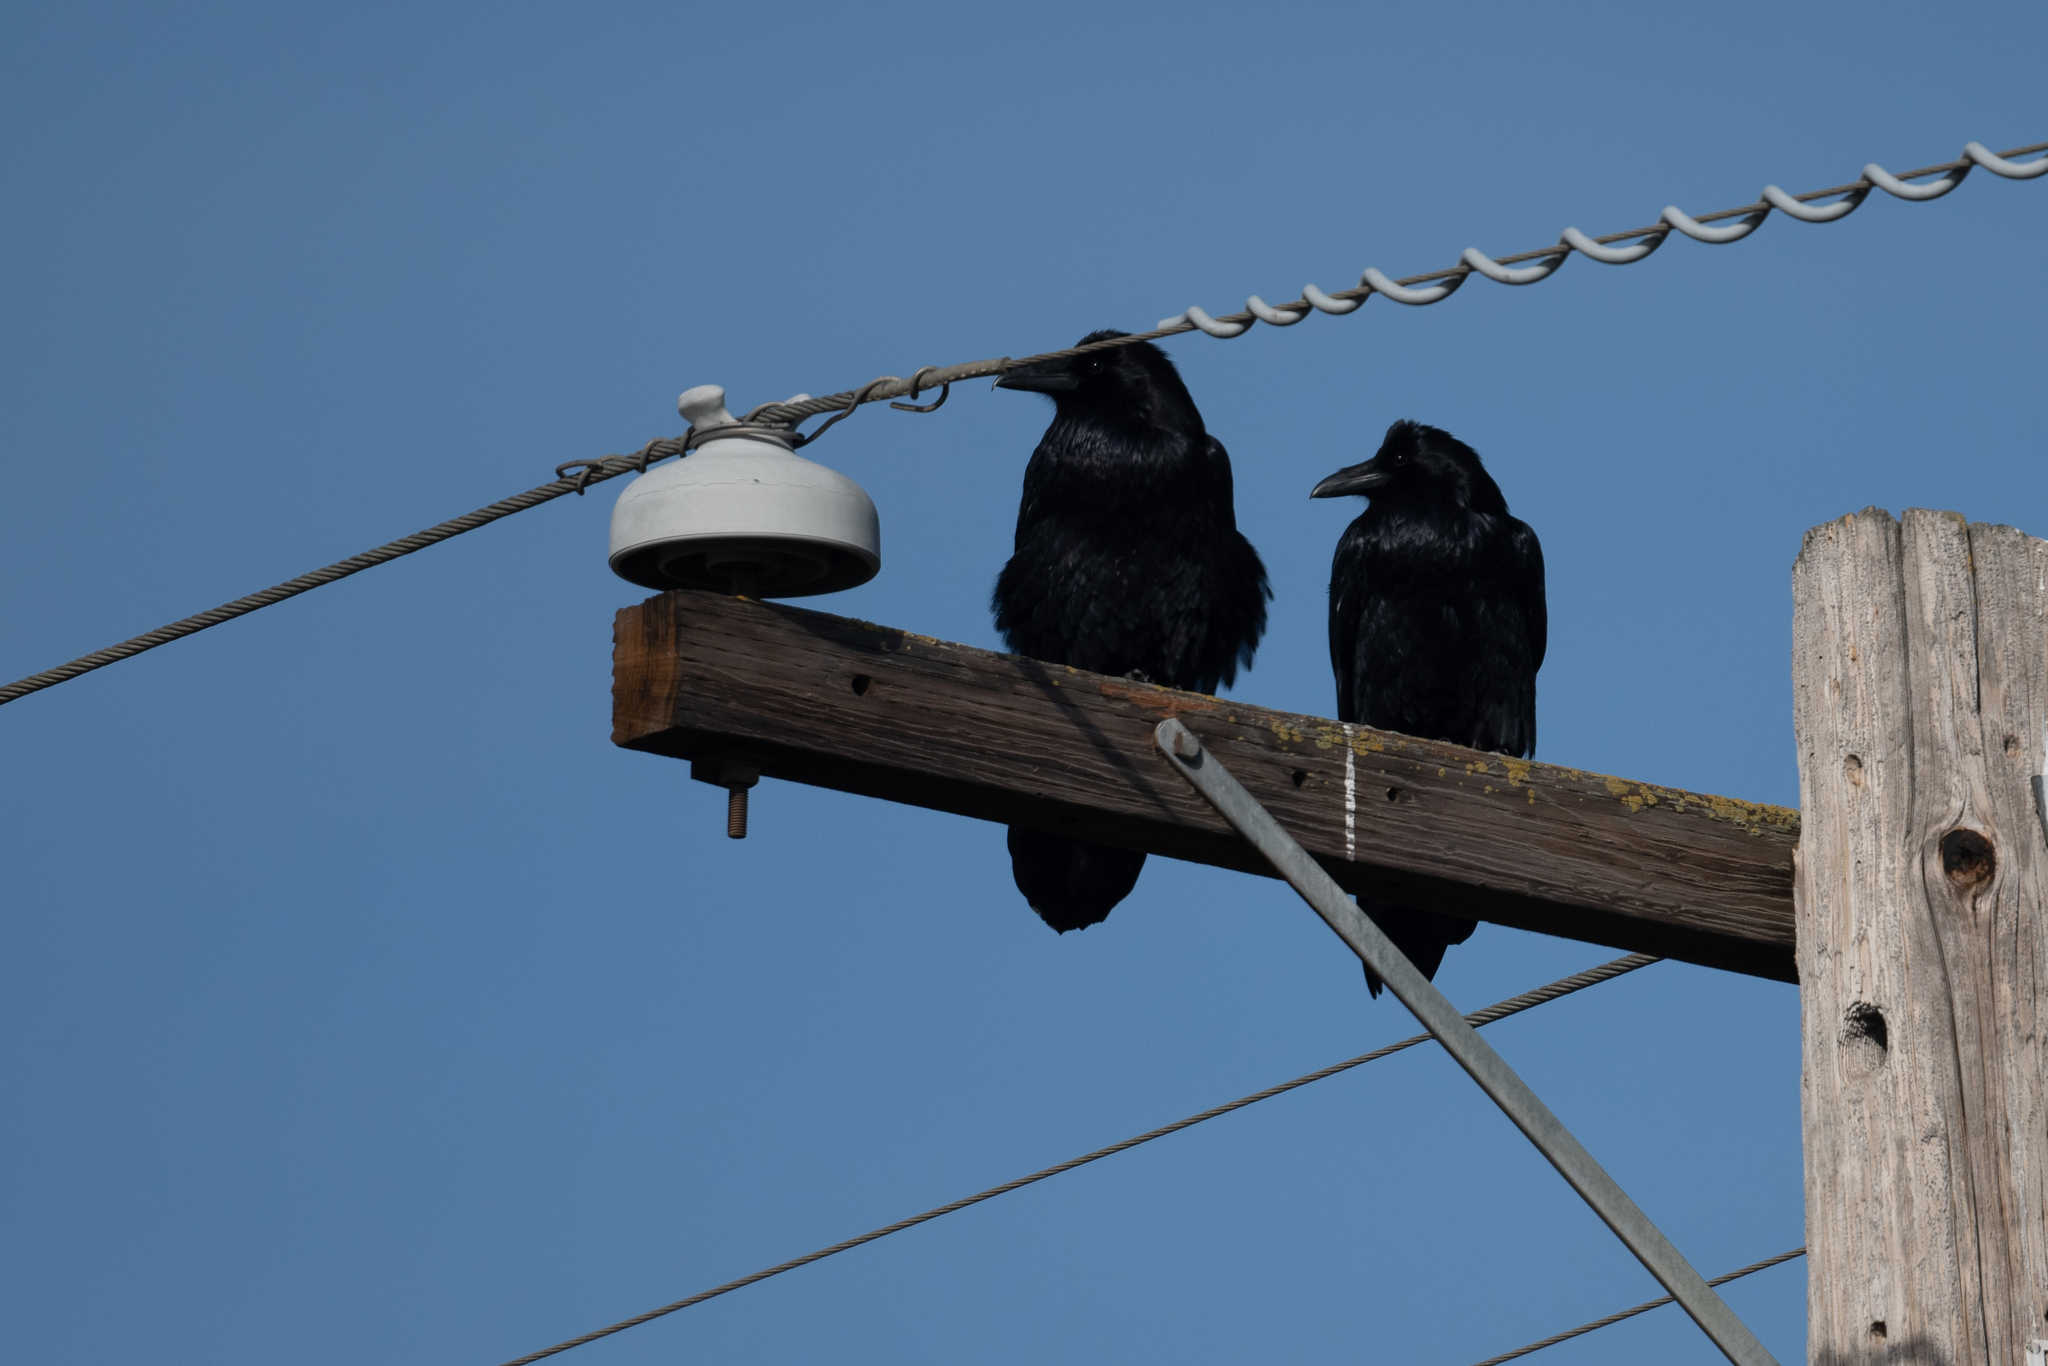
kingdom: Animalia
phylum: Chordata
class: Aves
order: Passeriformes
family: Corvidae
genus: Corvus
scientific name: Corvus corax
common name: Common raven
